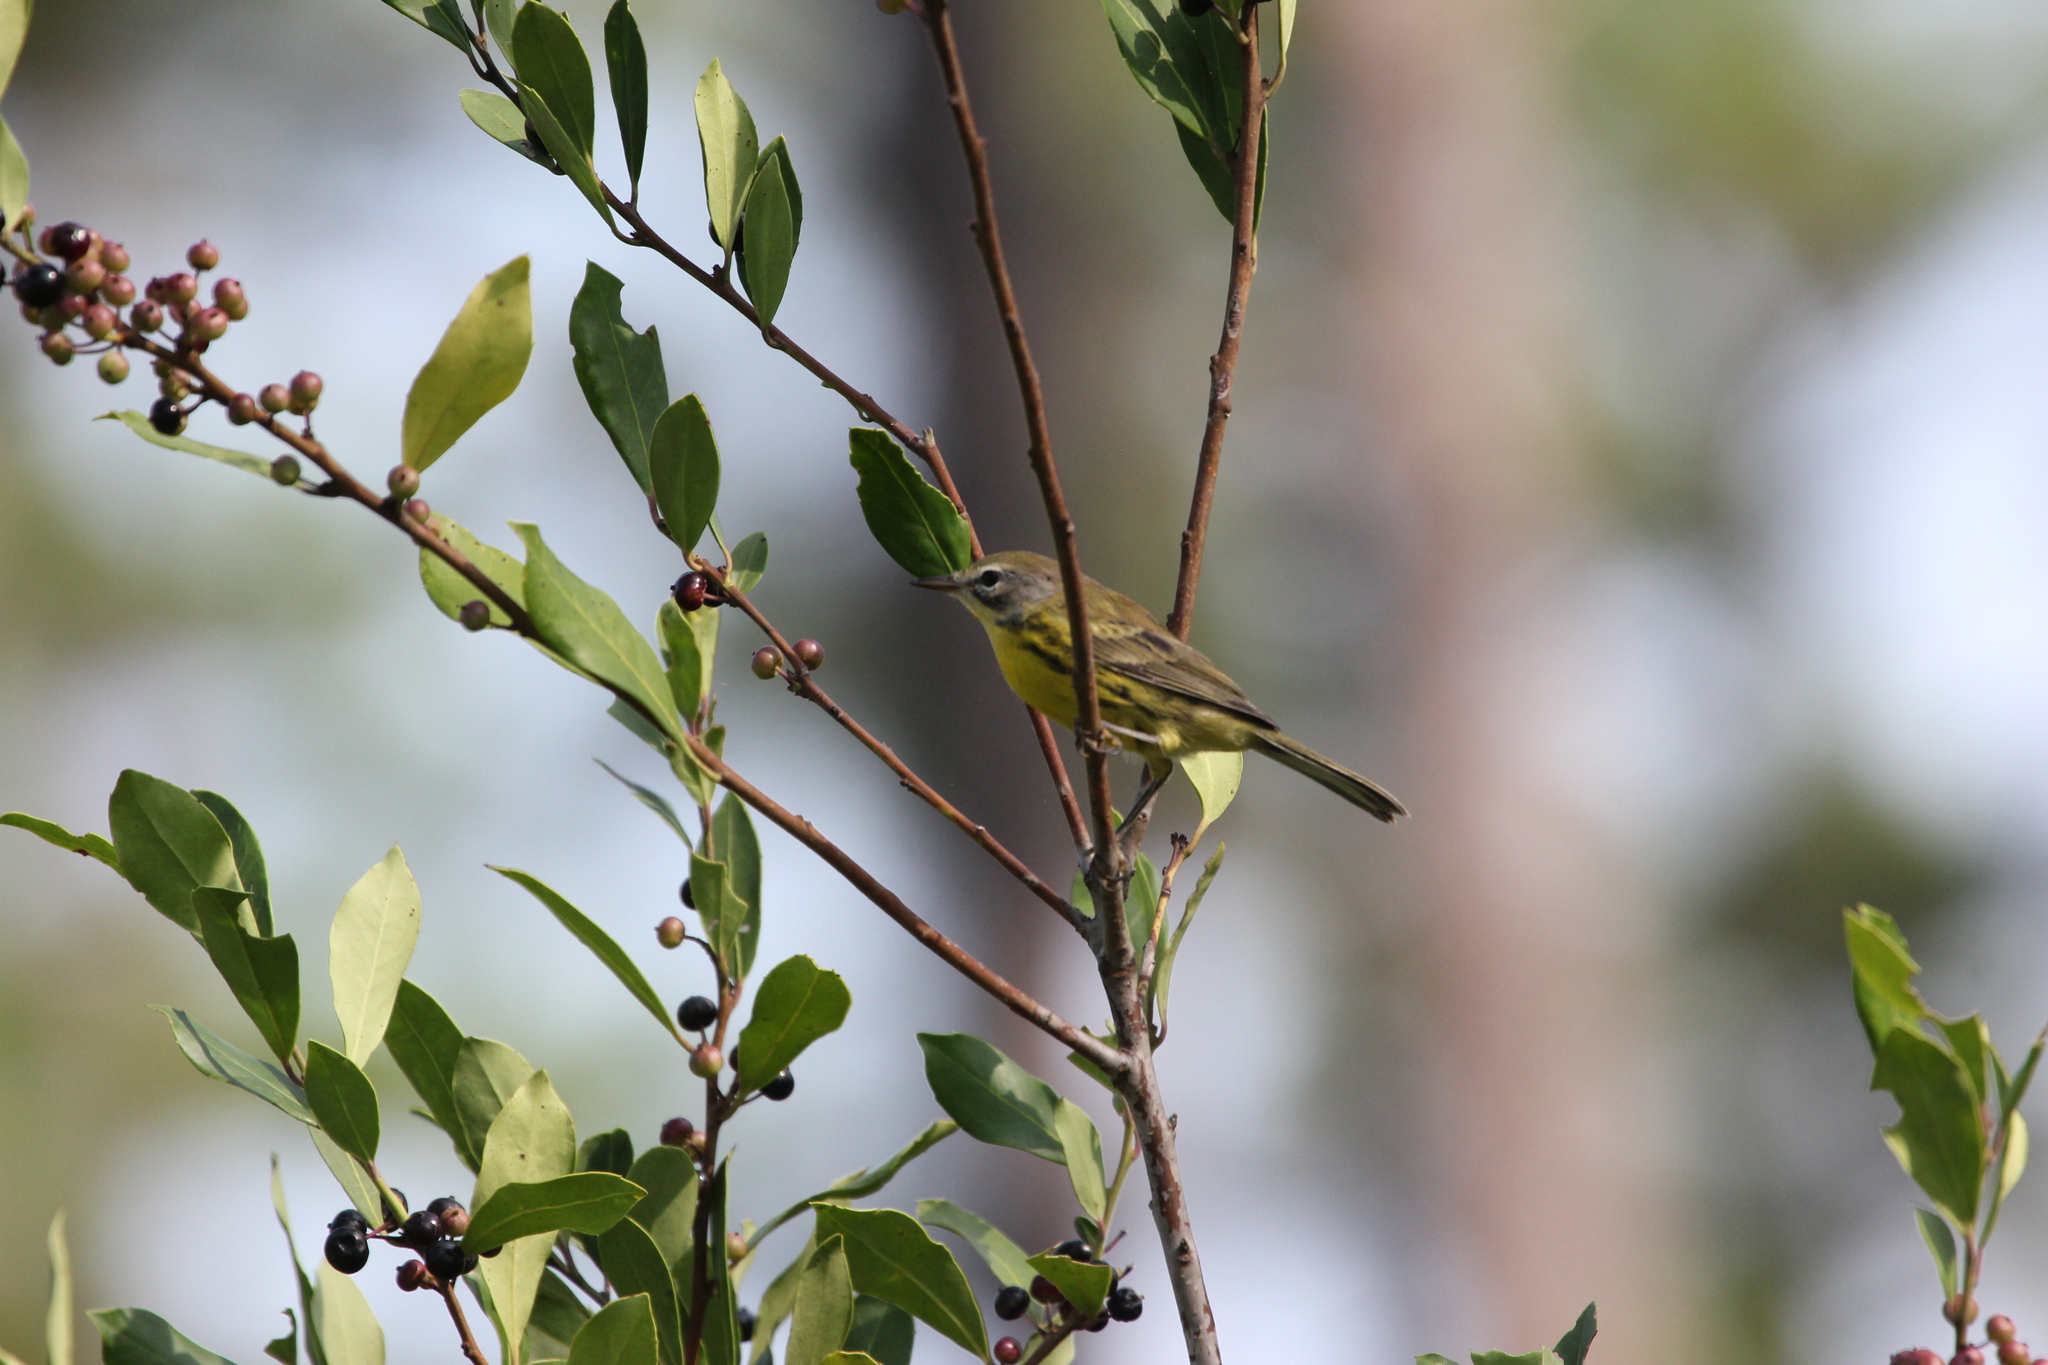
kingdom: Animalia
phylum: Chordata
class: Aves
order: Passeriformes
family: Parulidae
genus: Setophaga
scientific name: Setophaga discolor
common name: Prairie warbler
